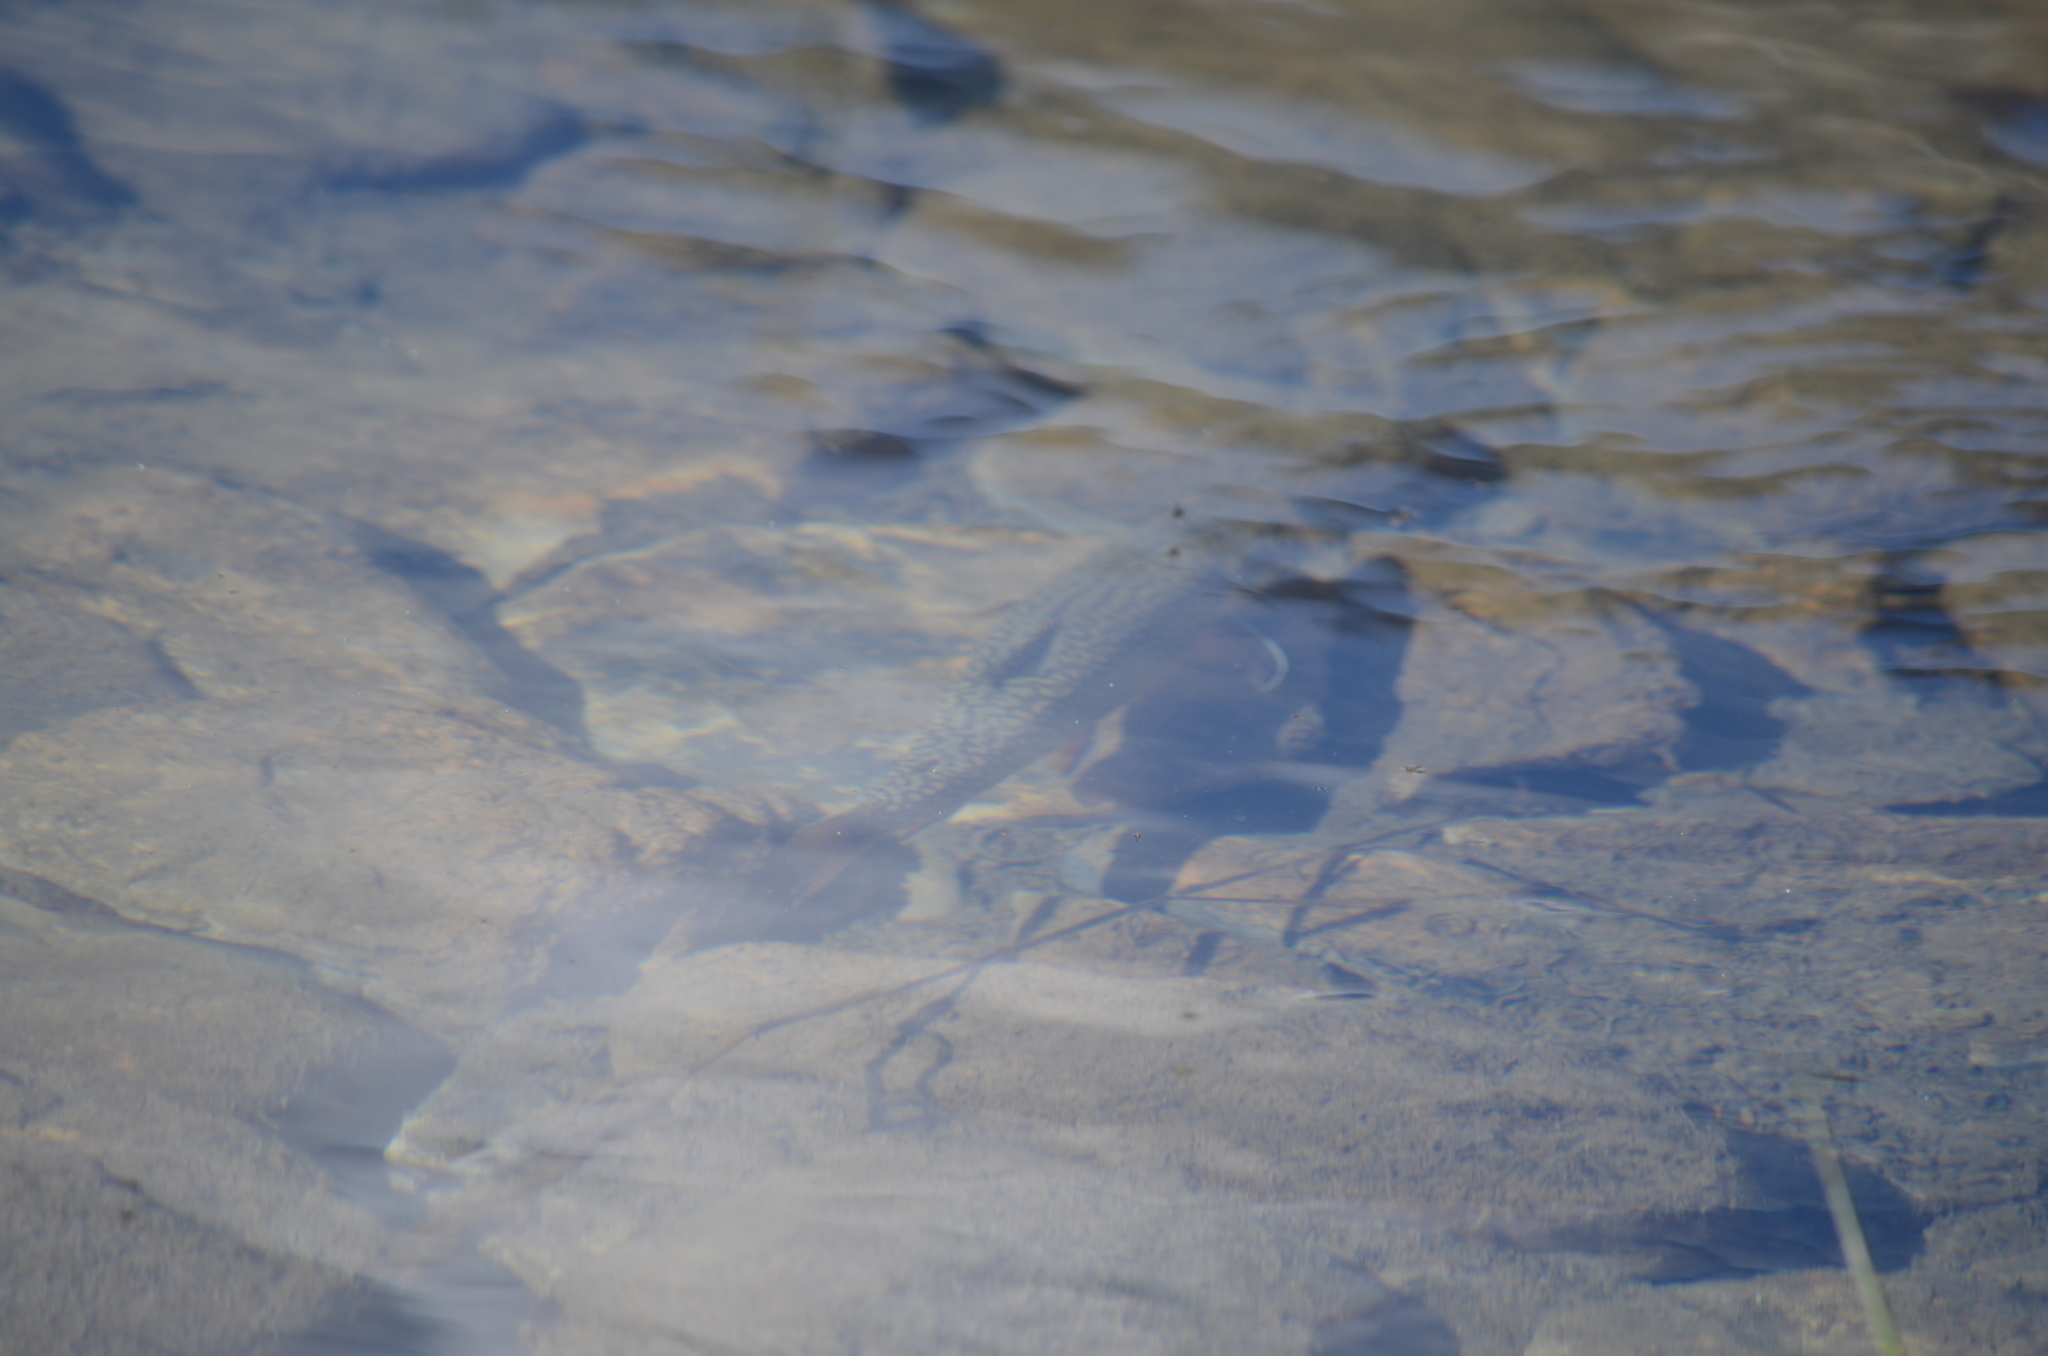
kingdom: Animalia
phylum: Chordata
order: Salmoniformes
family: Salmonidae
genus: Salvelinus
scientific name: Salvelinus fontinalis
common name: Brook trout
